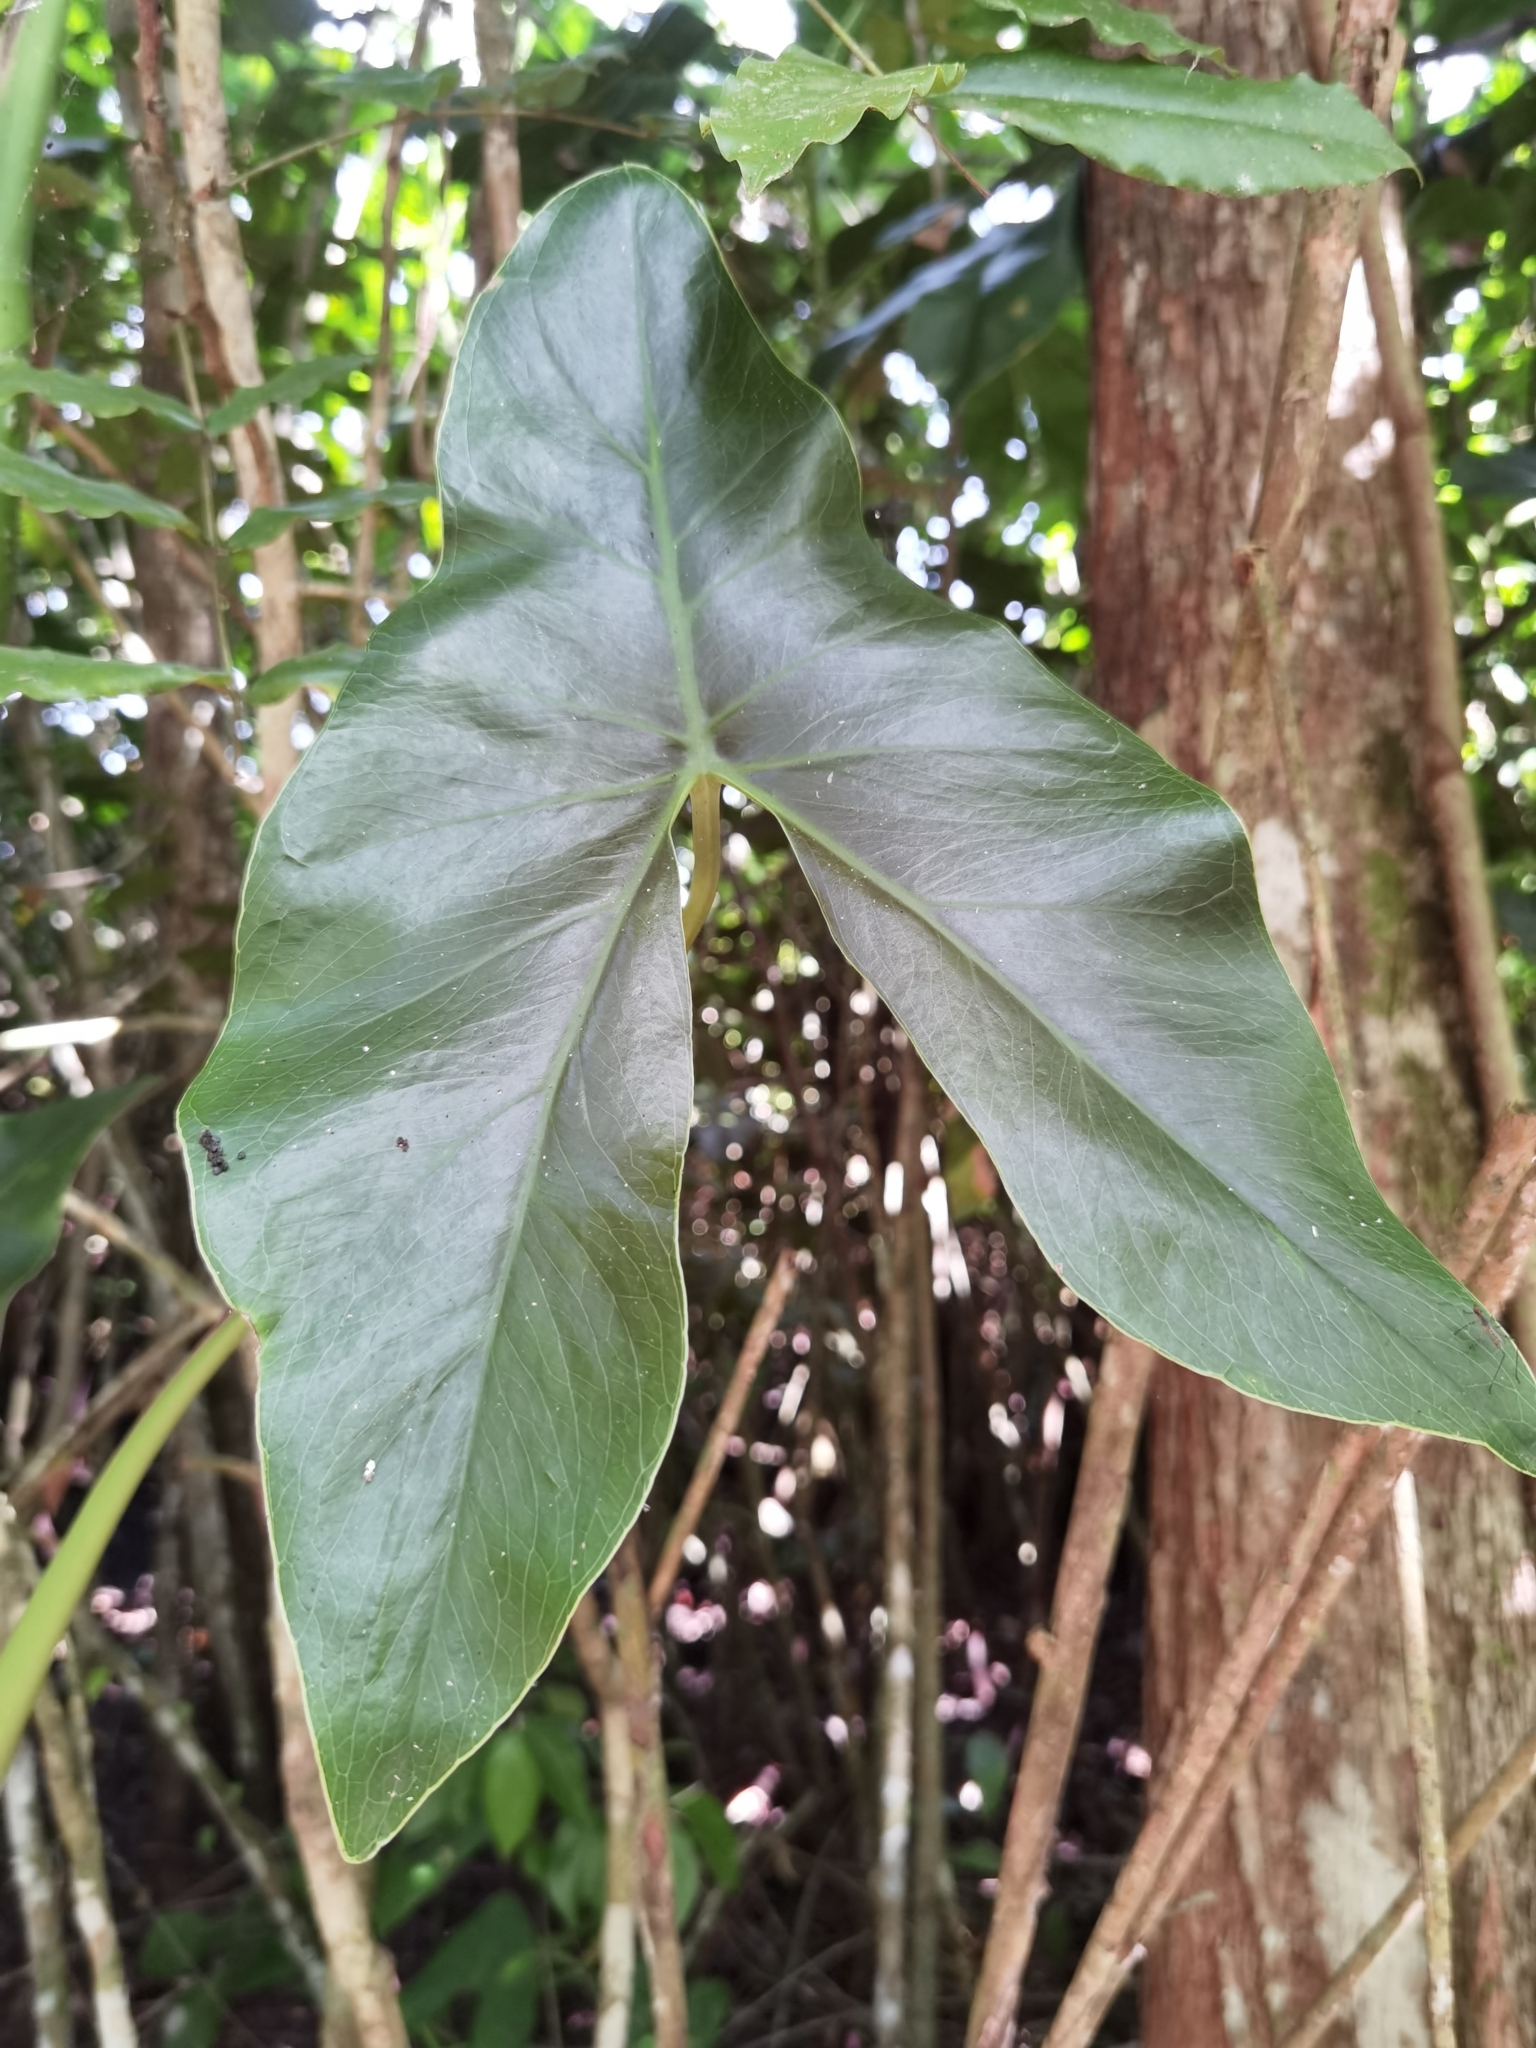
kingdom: Plantae
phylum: Tracheophyta
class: Liliopsida
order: Alismatales
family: Araceae
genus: Montrichardia
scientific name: Montrichardia arborescens
